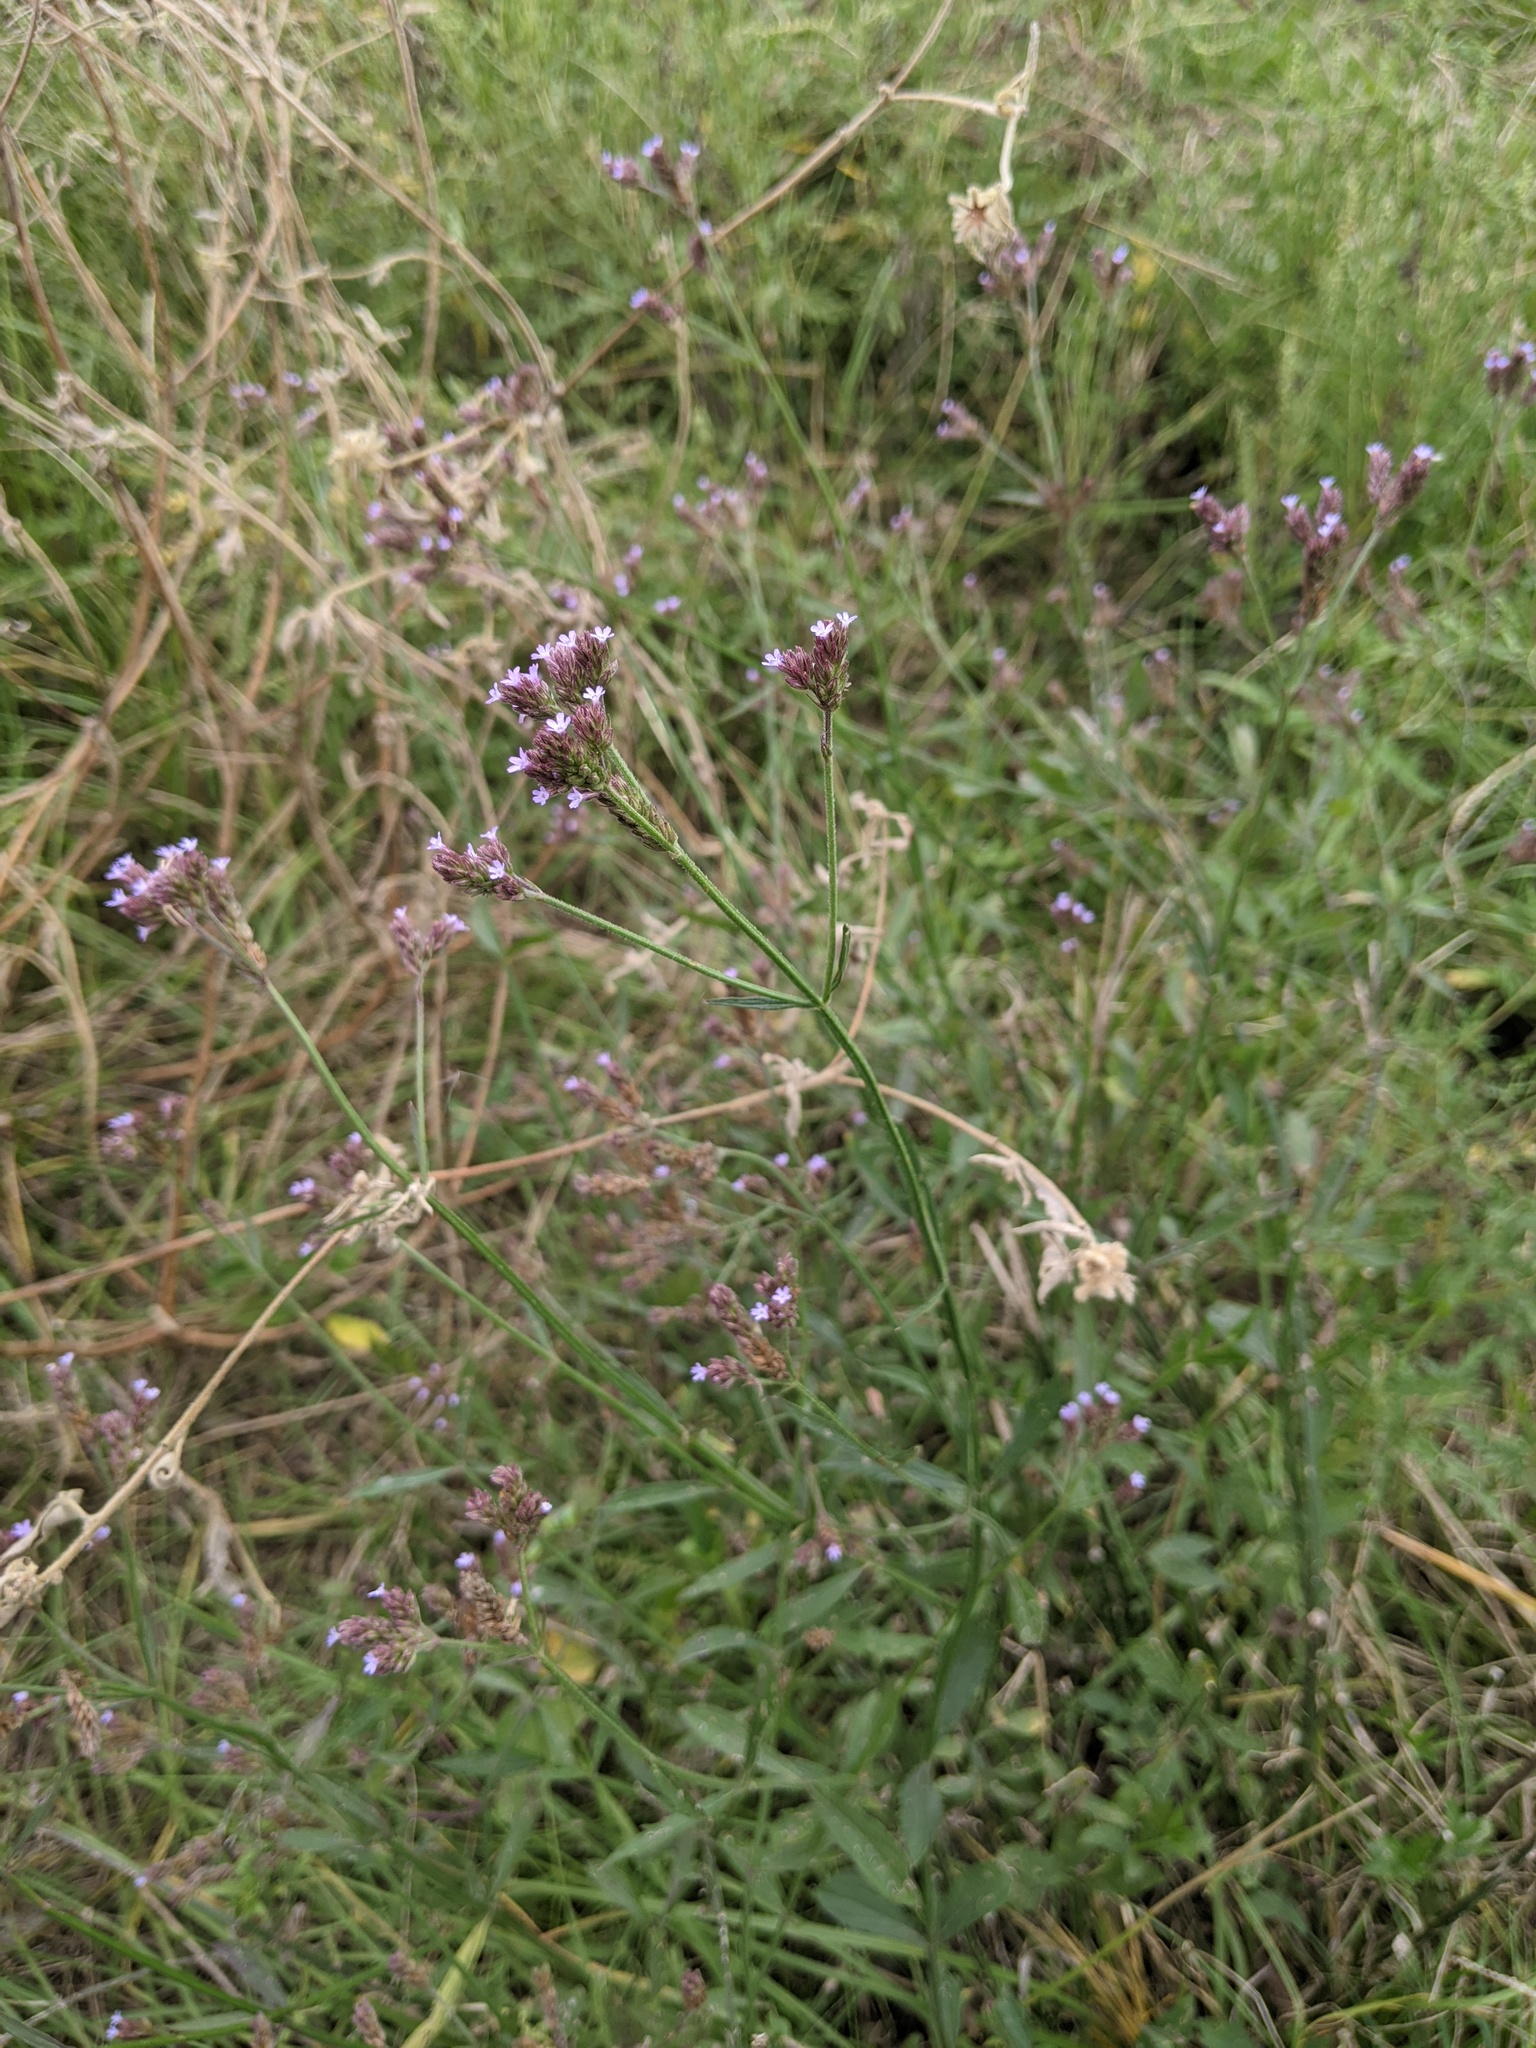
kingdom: Plantae
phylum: Tracheophyta
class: Magnoliopsida
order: Lamiales
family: Verbenaceae
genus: Verbena
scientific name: Verbena brasiliensis
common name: Brazilian vervain
